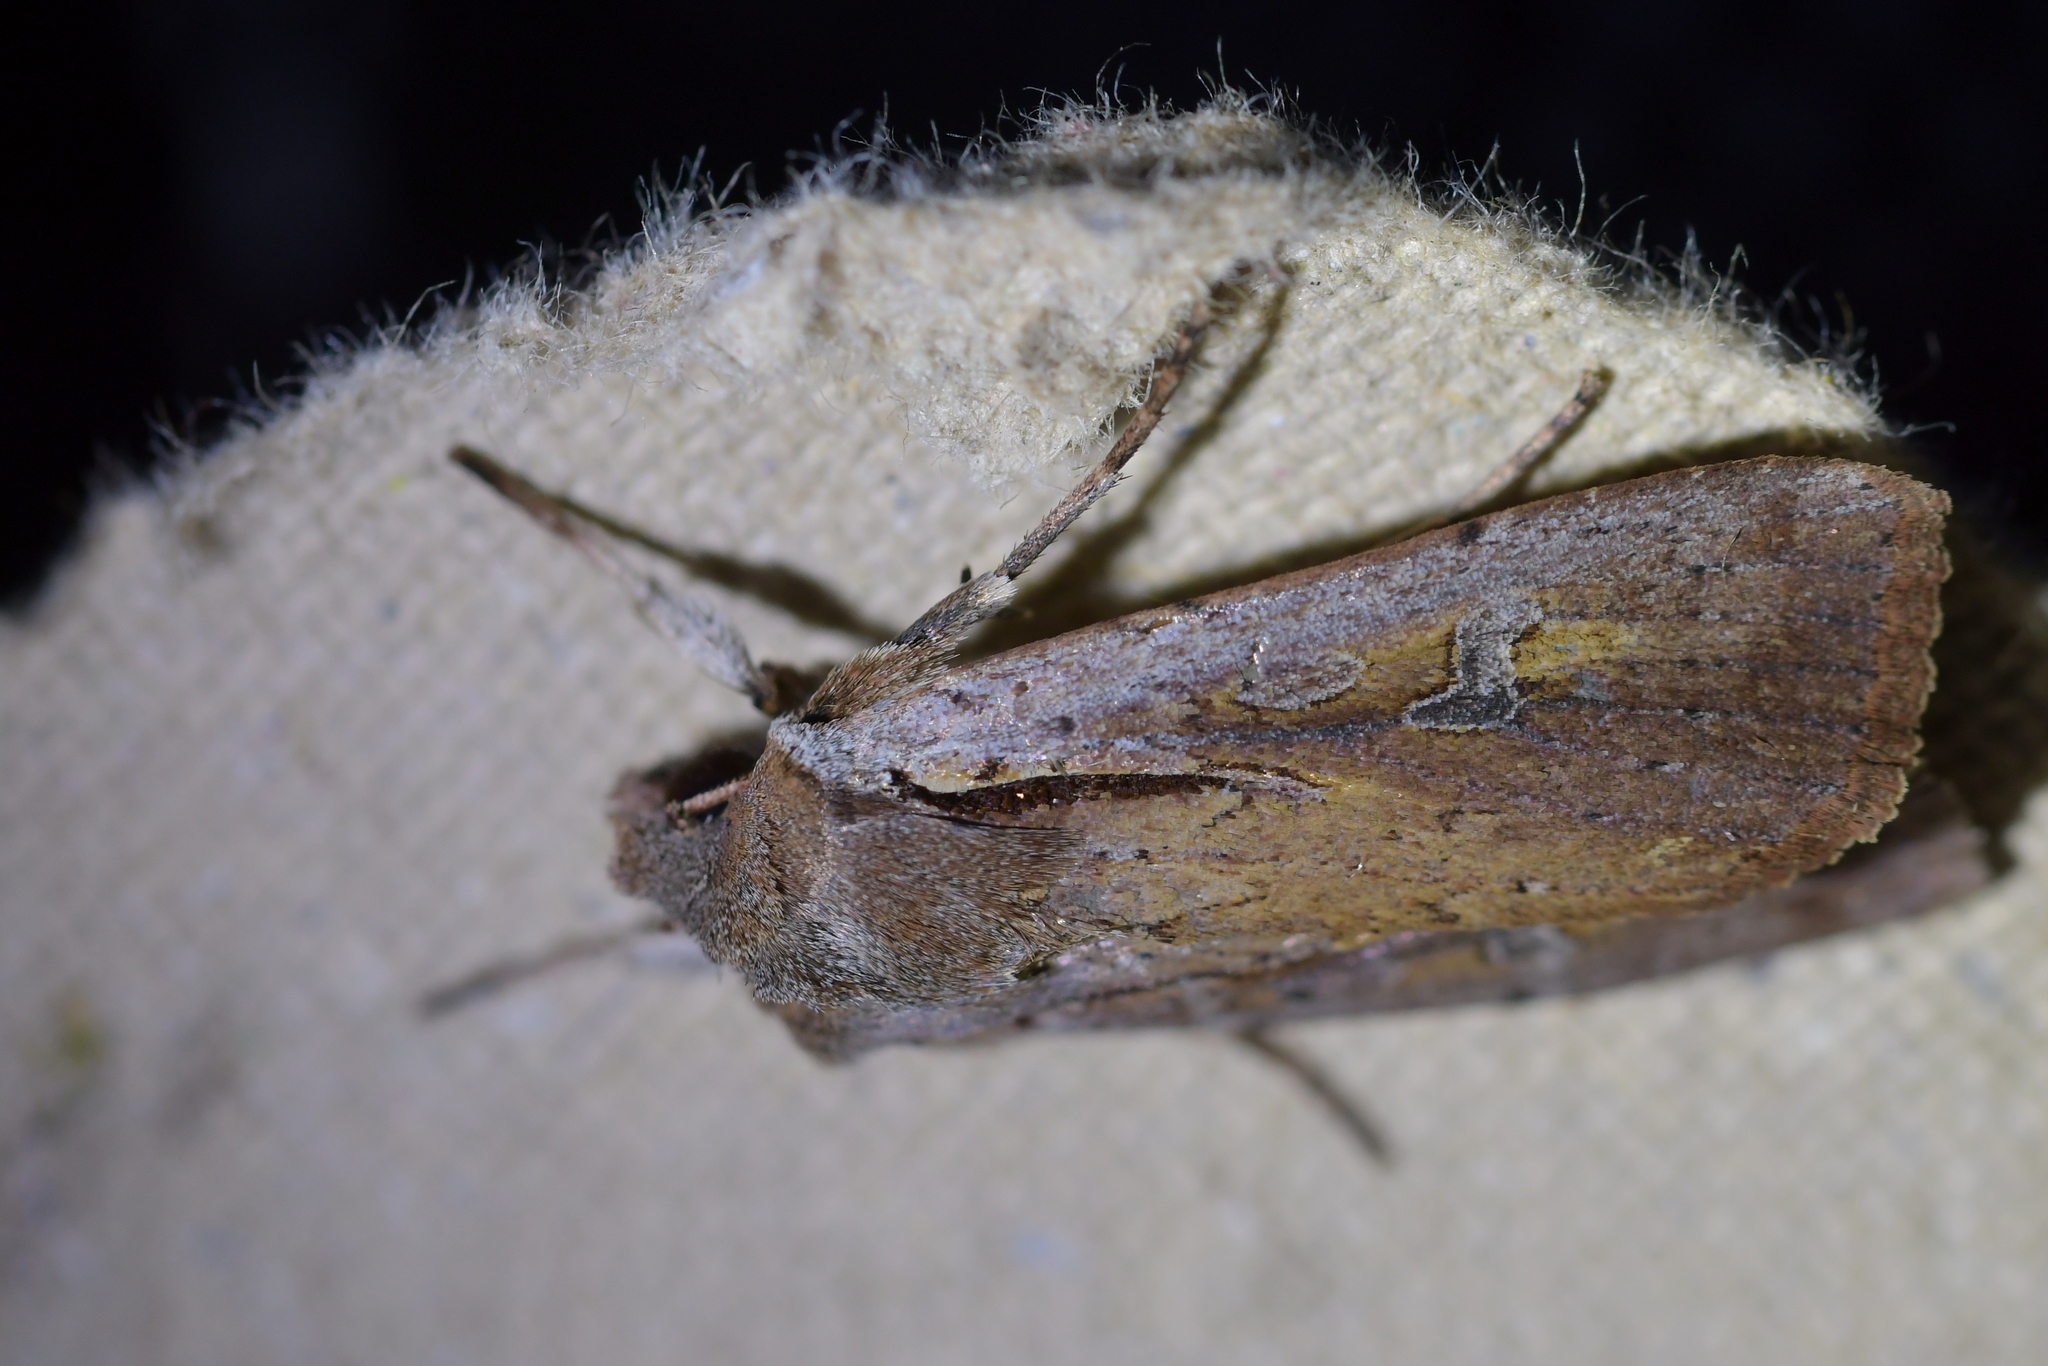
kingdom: Animalia
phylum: Arthropoda
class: Insecta
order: Lepidoptera
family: Noctuidae
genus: Ichneutica
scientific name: Ichneutica atristriga
